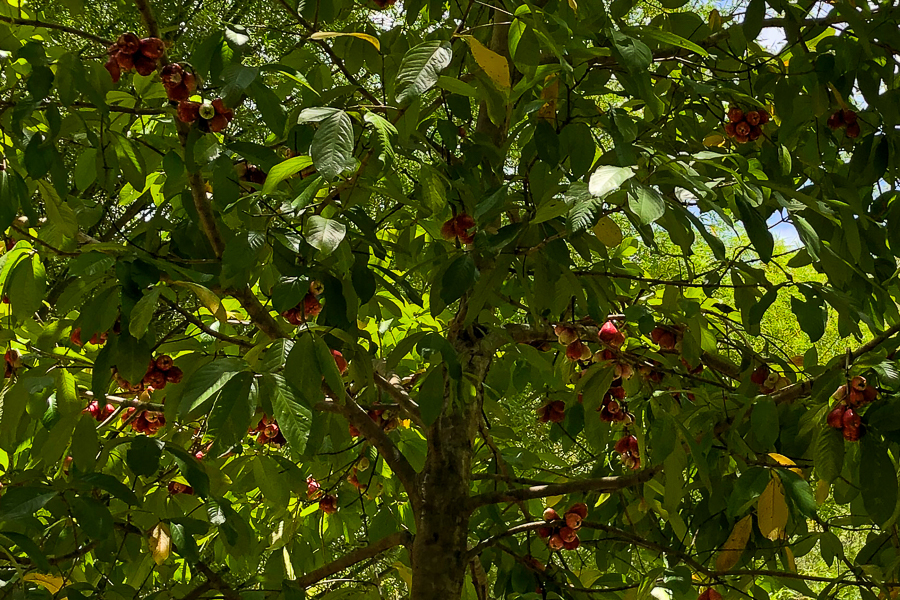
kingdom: Plantae
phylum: Tracheophyta
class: Magnoliopsida
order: Myrtales
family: Myrtaceae
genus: Syzygium
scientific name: Syzygium samarangense
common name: Semarang rose-apple
